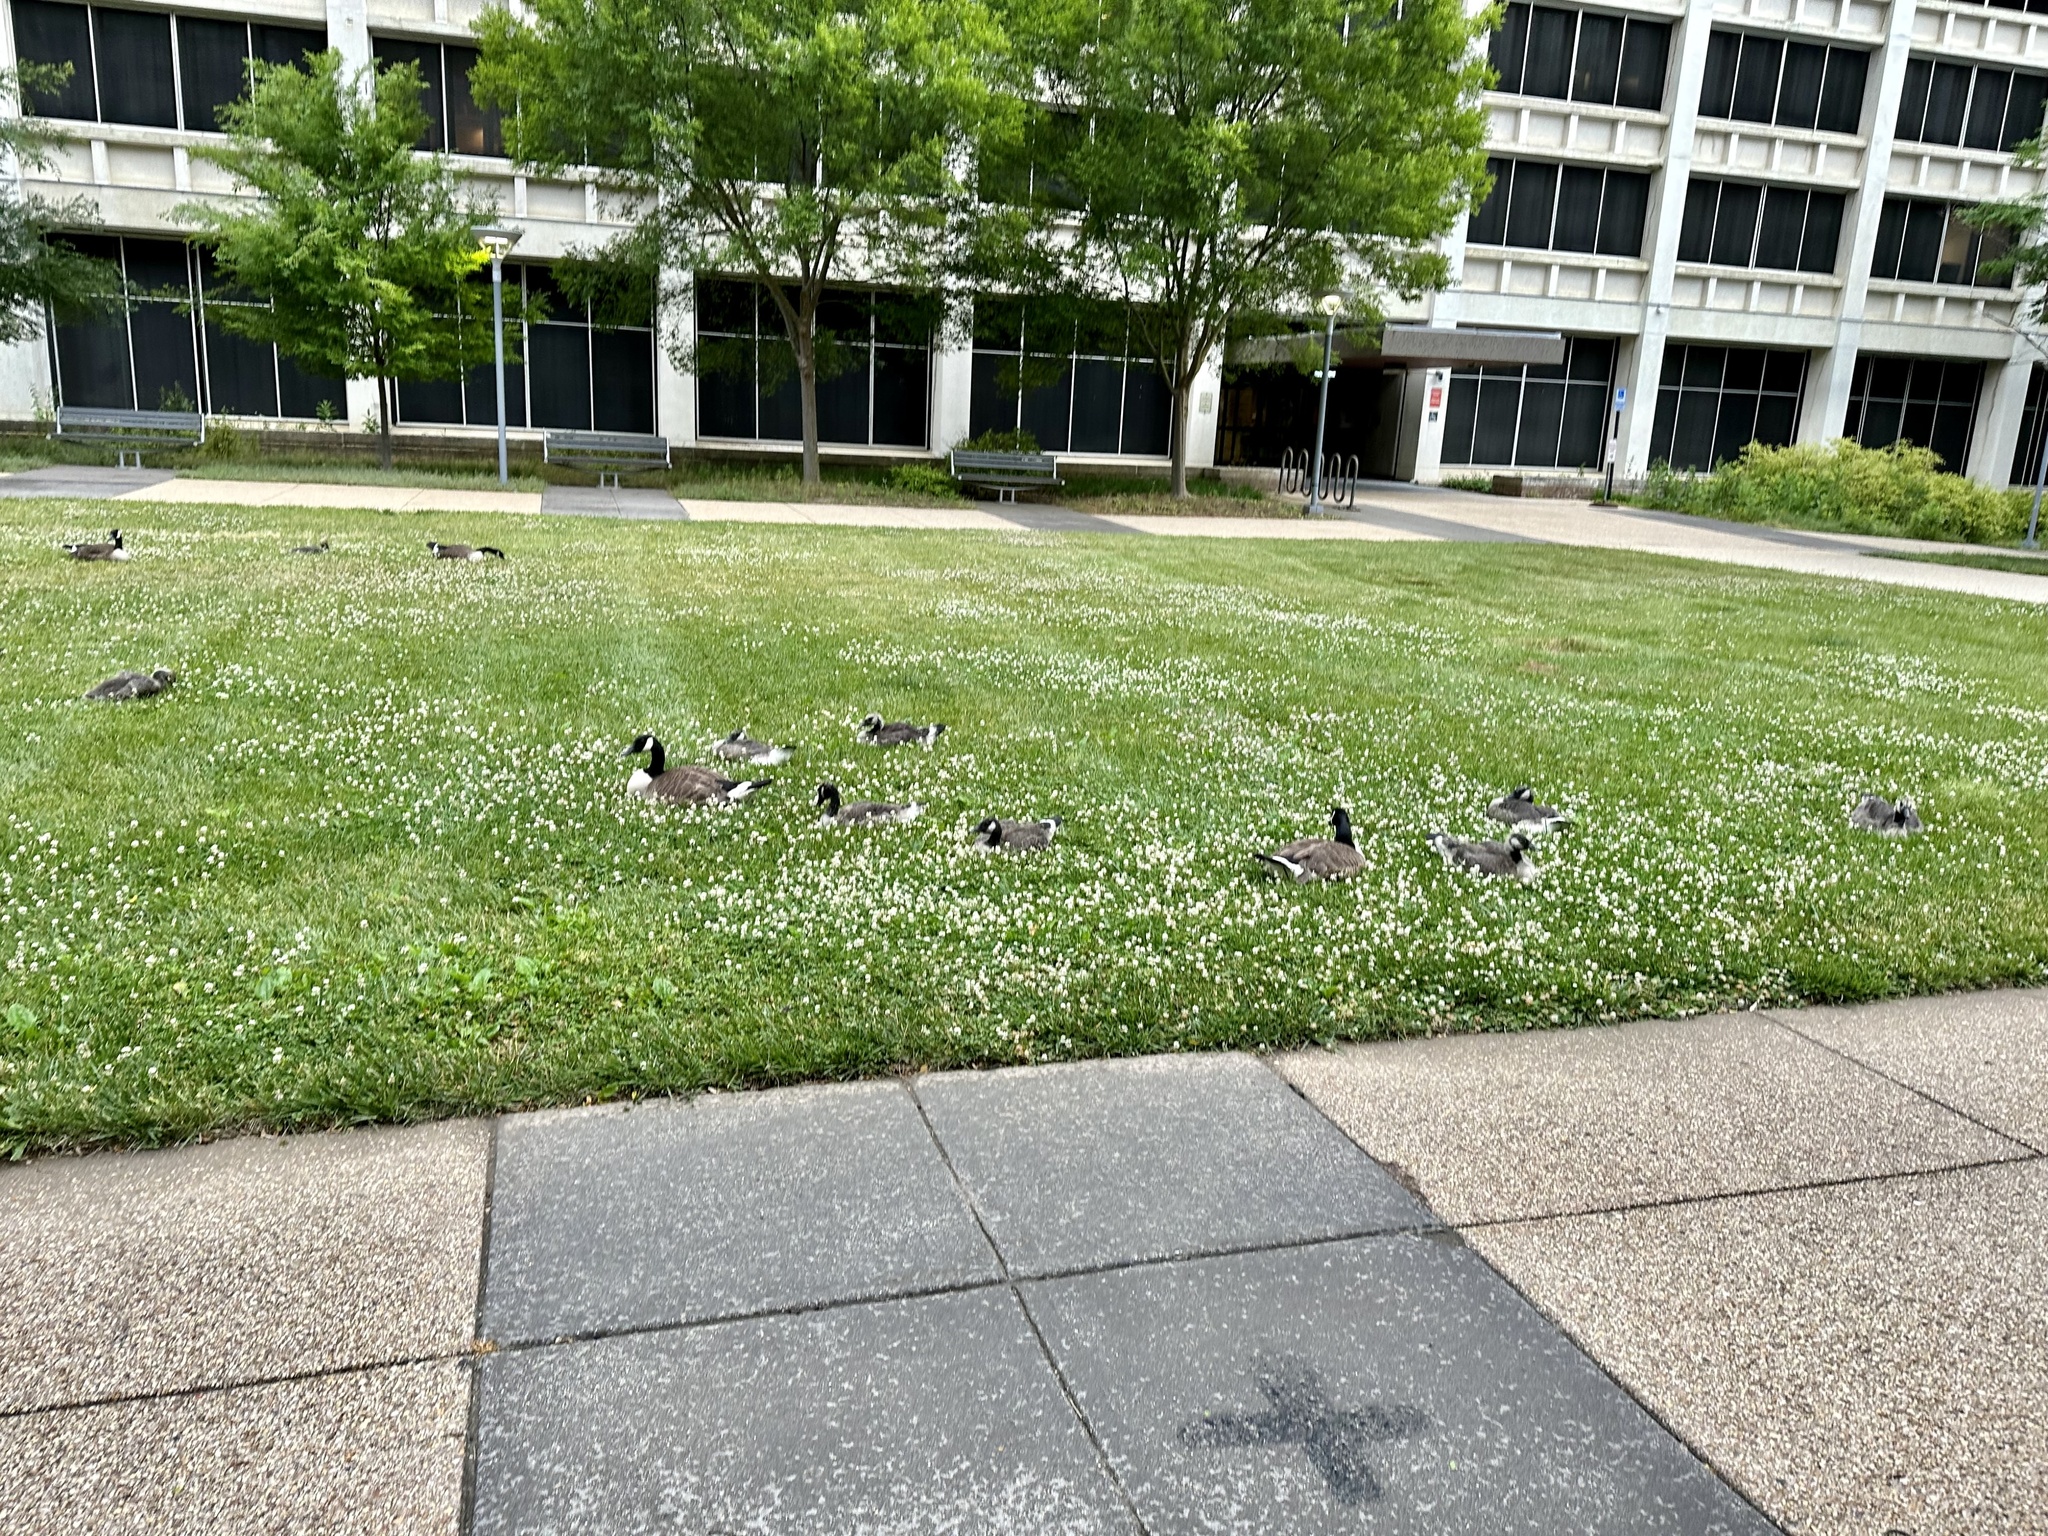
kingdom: Animalia
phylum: Chordata
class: Aves
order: Anseriformes
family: Anatidae
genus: Branta
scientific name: Branta canadensis
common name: Canada goose
